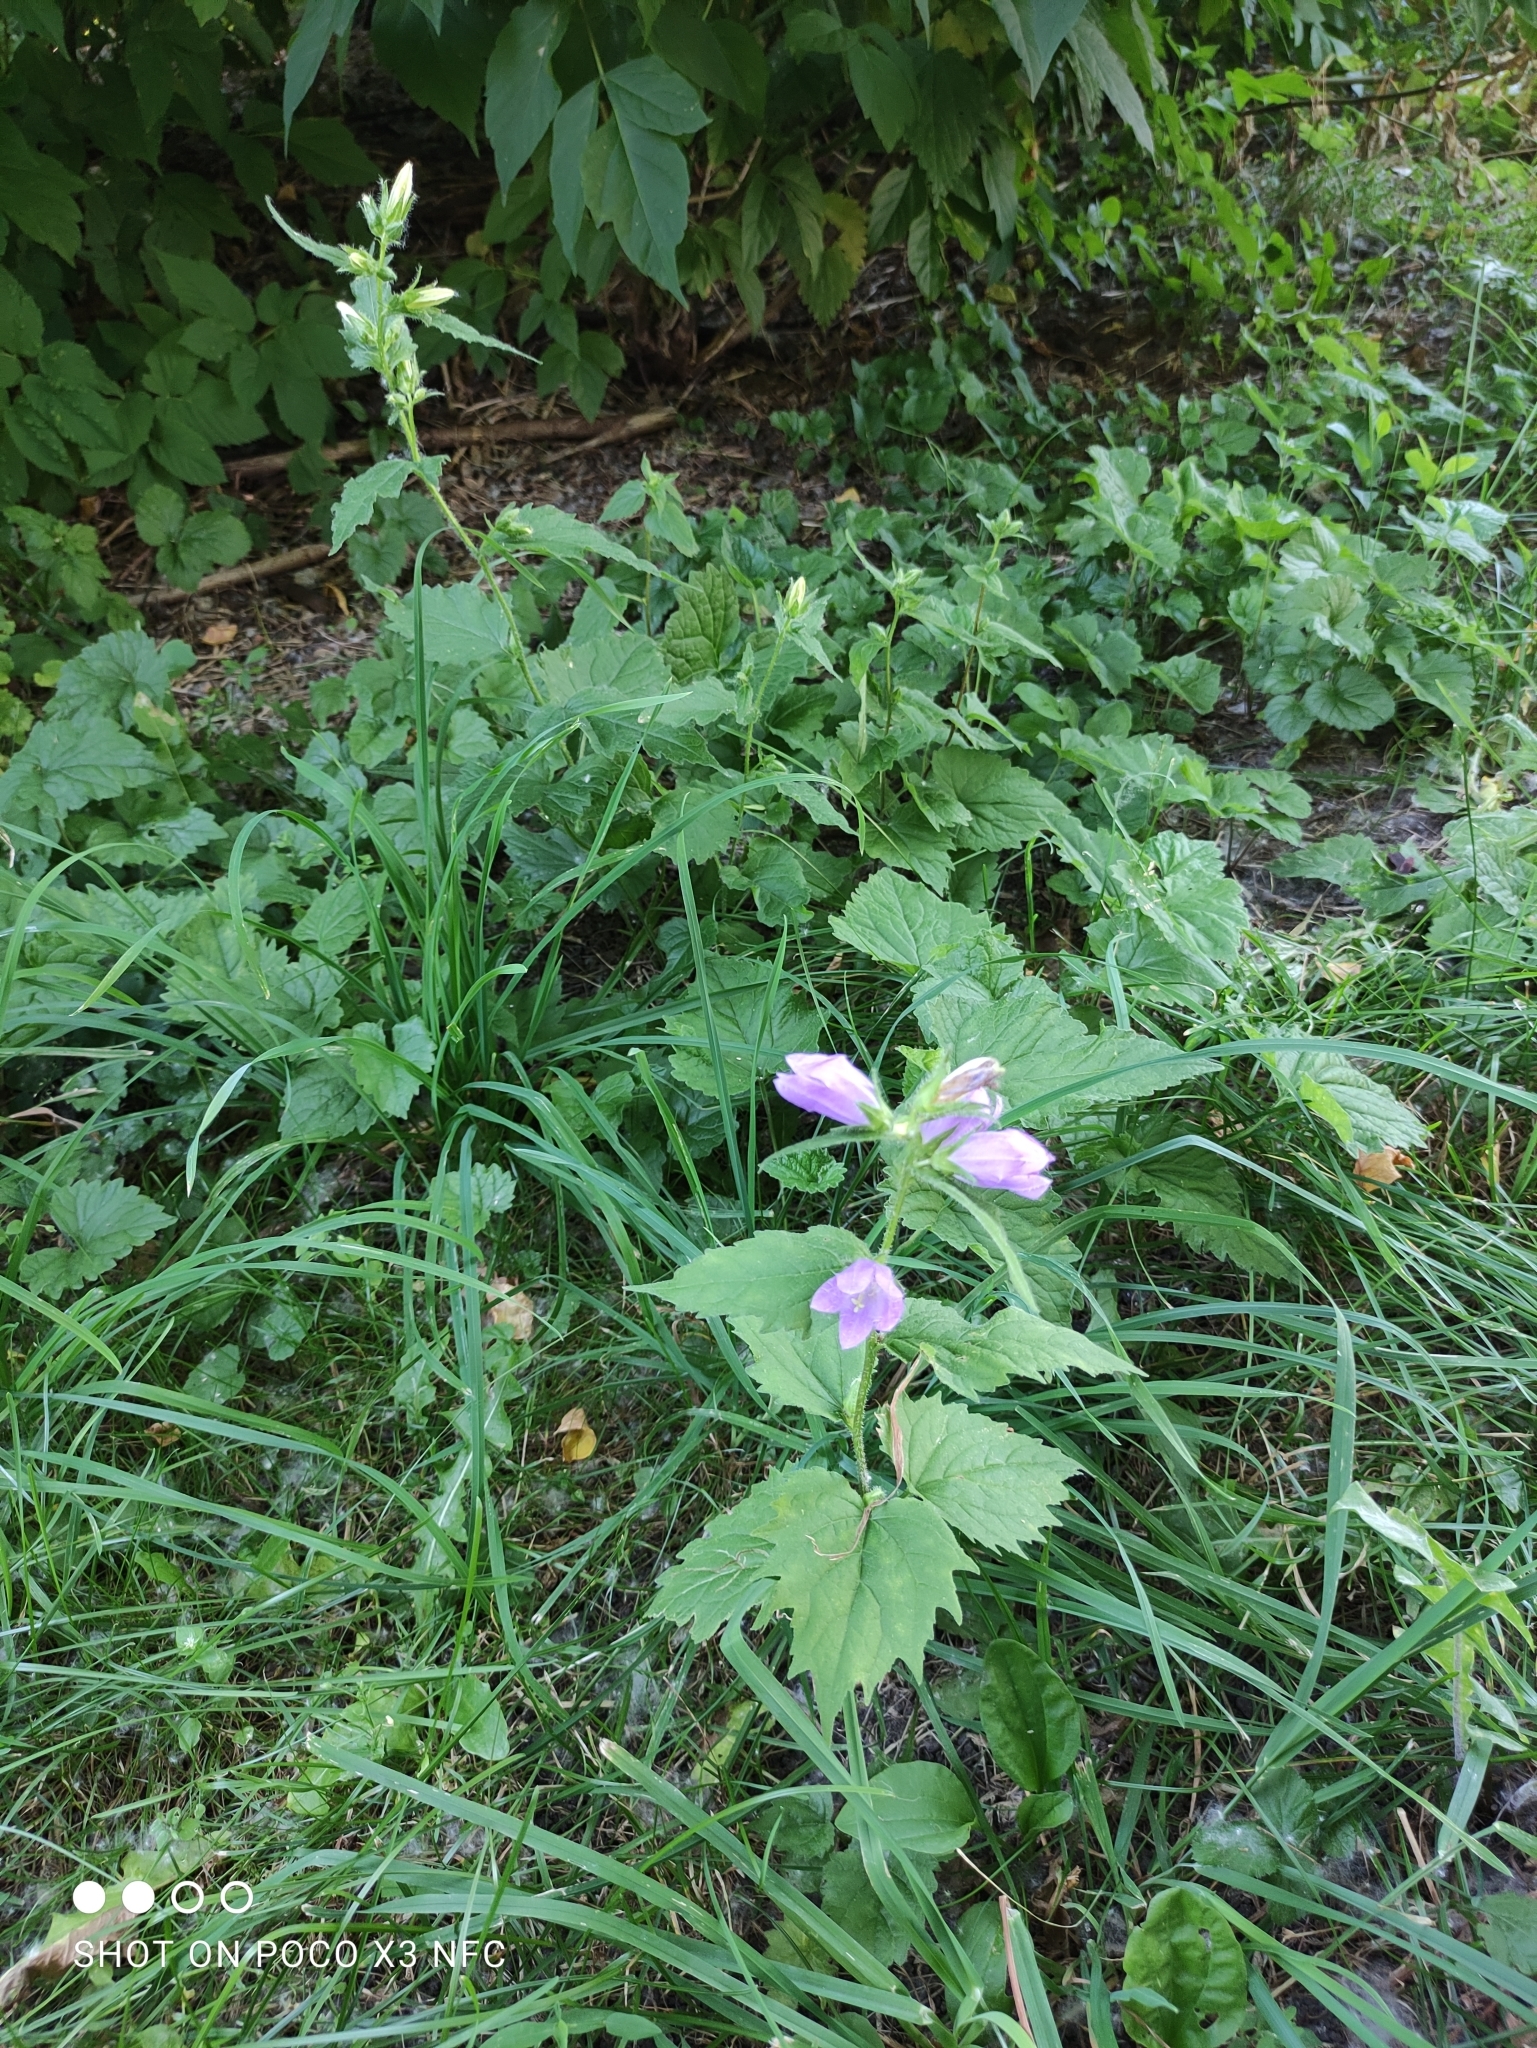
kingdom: Plantae
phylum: Tracheophyta
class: Magnoliopsida
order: Asterales
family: Campanulaceae
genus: Campanula
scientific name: Campanula trachelium
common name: Nettle-leaved bellflower
